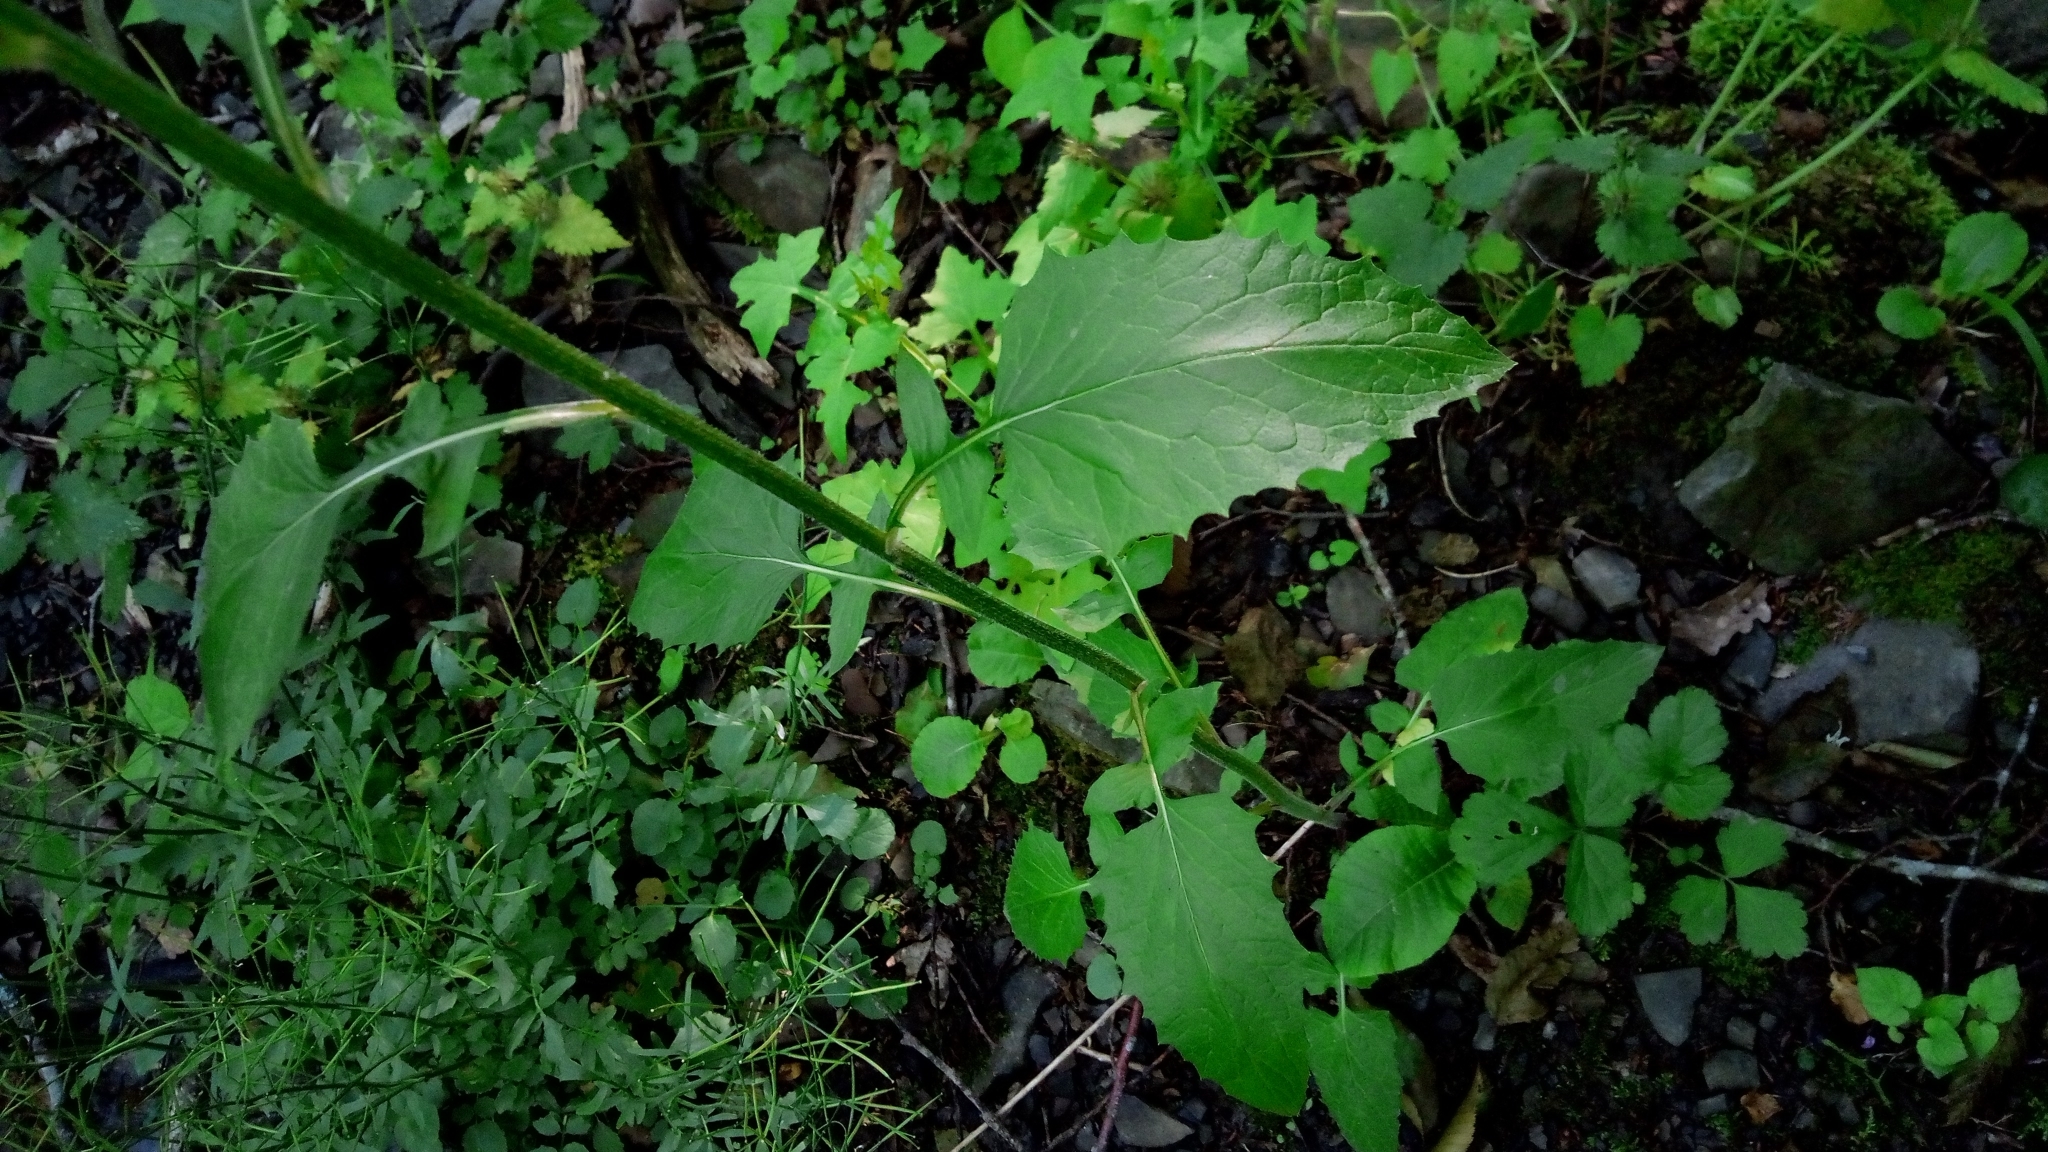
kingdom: Plantae
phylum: Tracheophyta
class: Magnoliopsida
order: Asterales
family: Asteraceae
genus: Lapsana
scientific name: Lapsana communis
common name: Nipplewort
